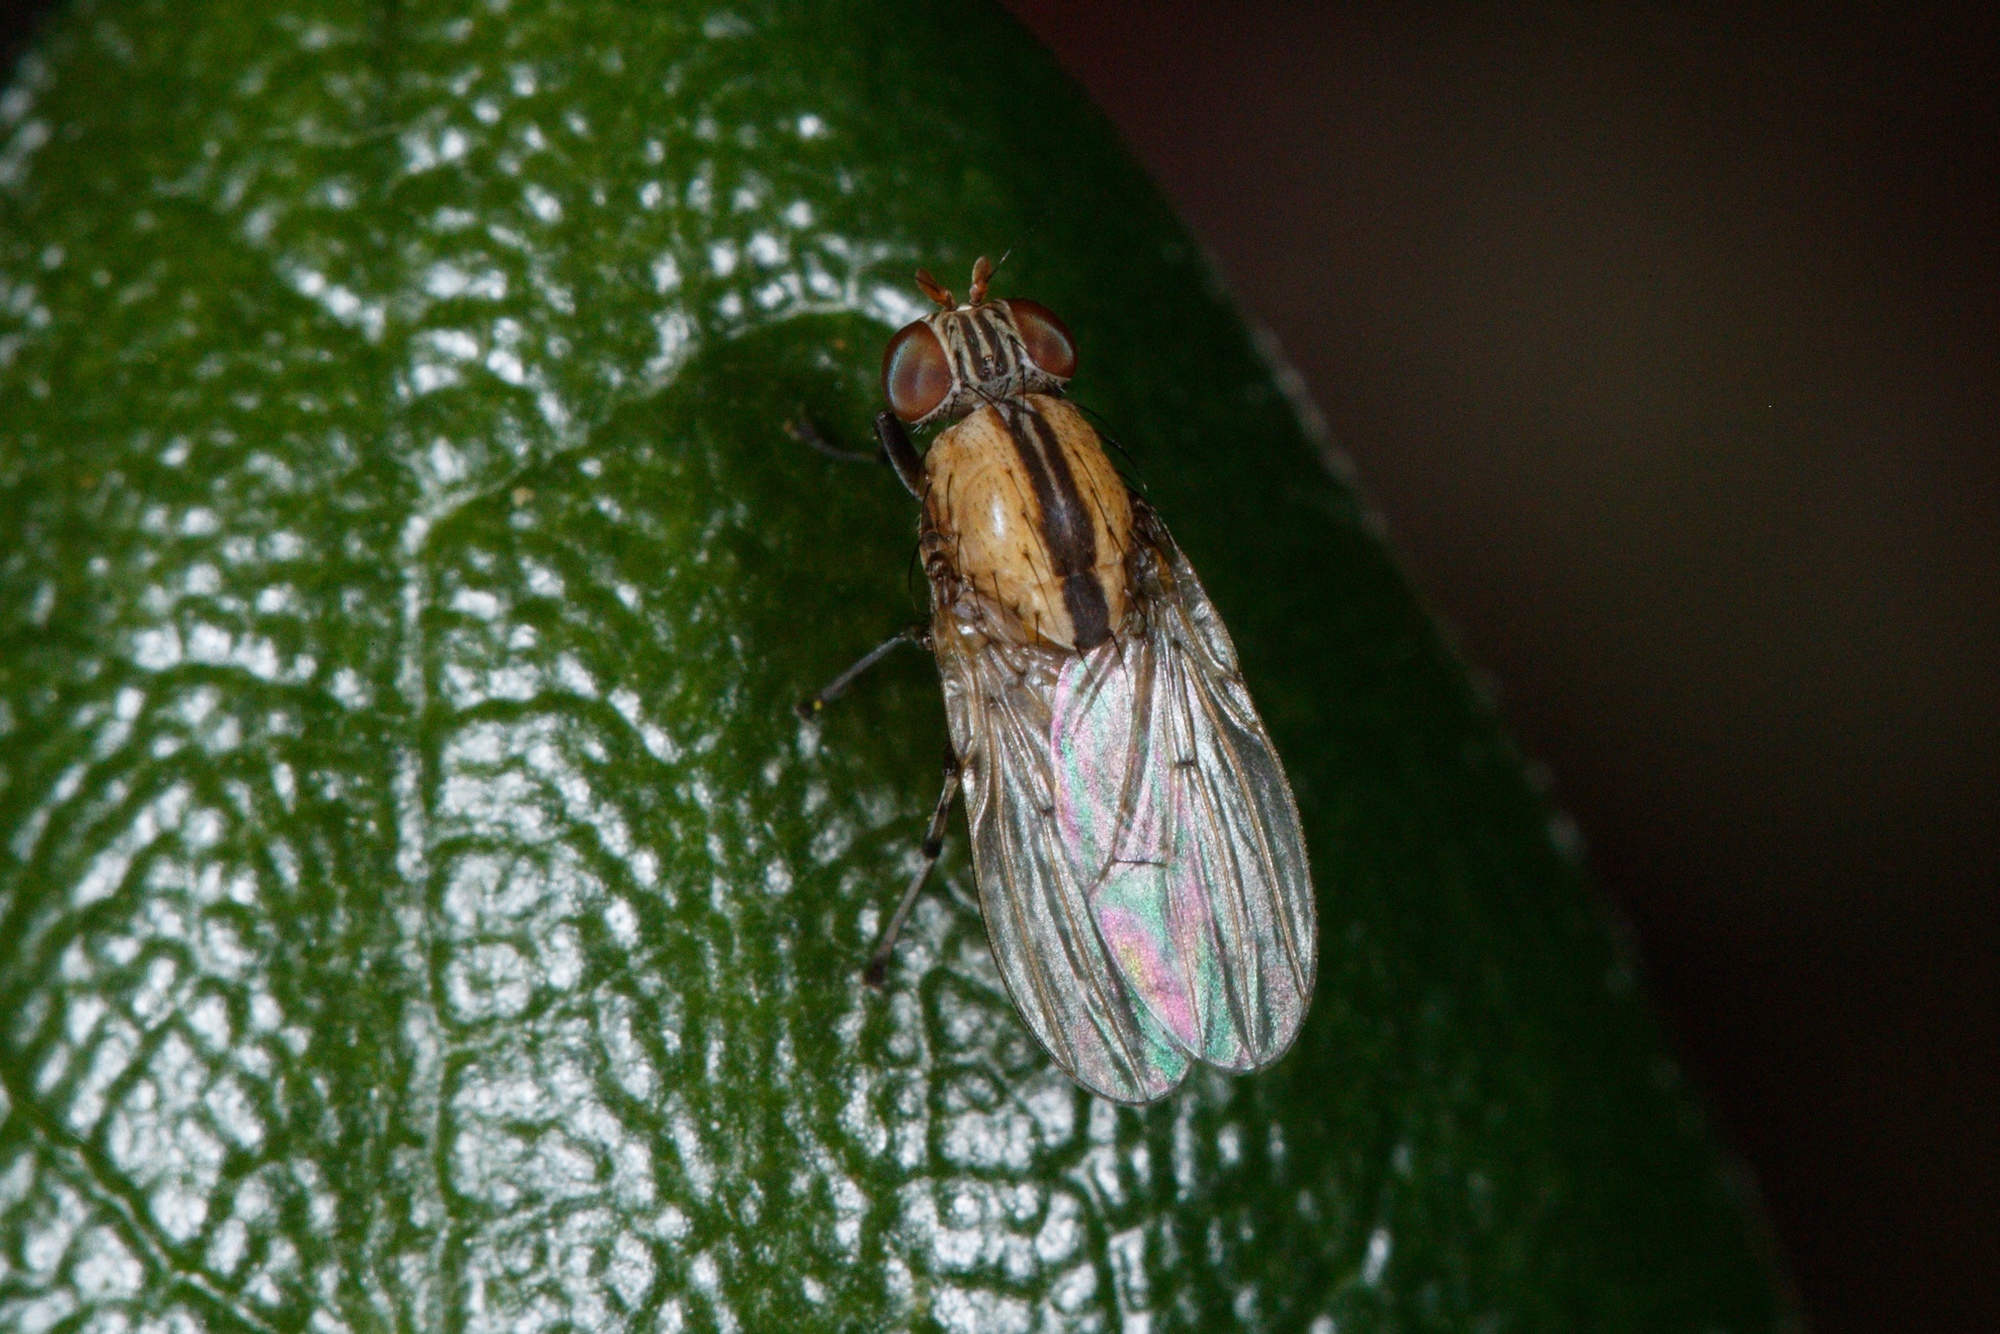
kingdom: Animalia
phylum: Arthropoda
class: Insecta
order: Diptera
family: Lauxaniidae
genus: Sapromyza
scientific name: Sapromyza neozelandica
